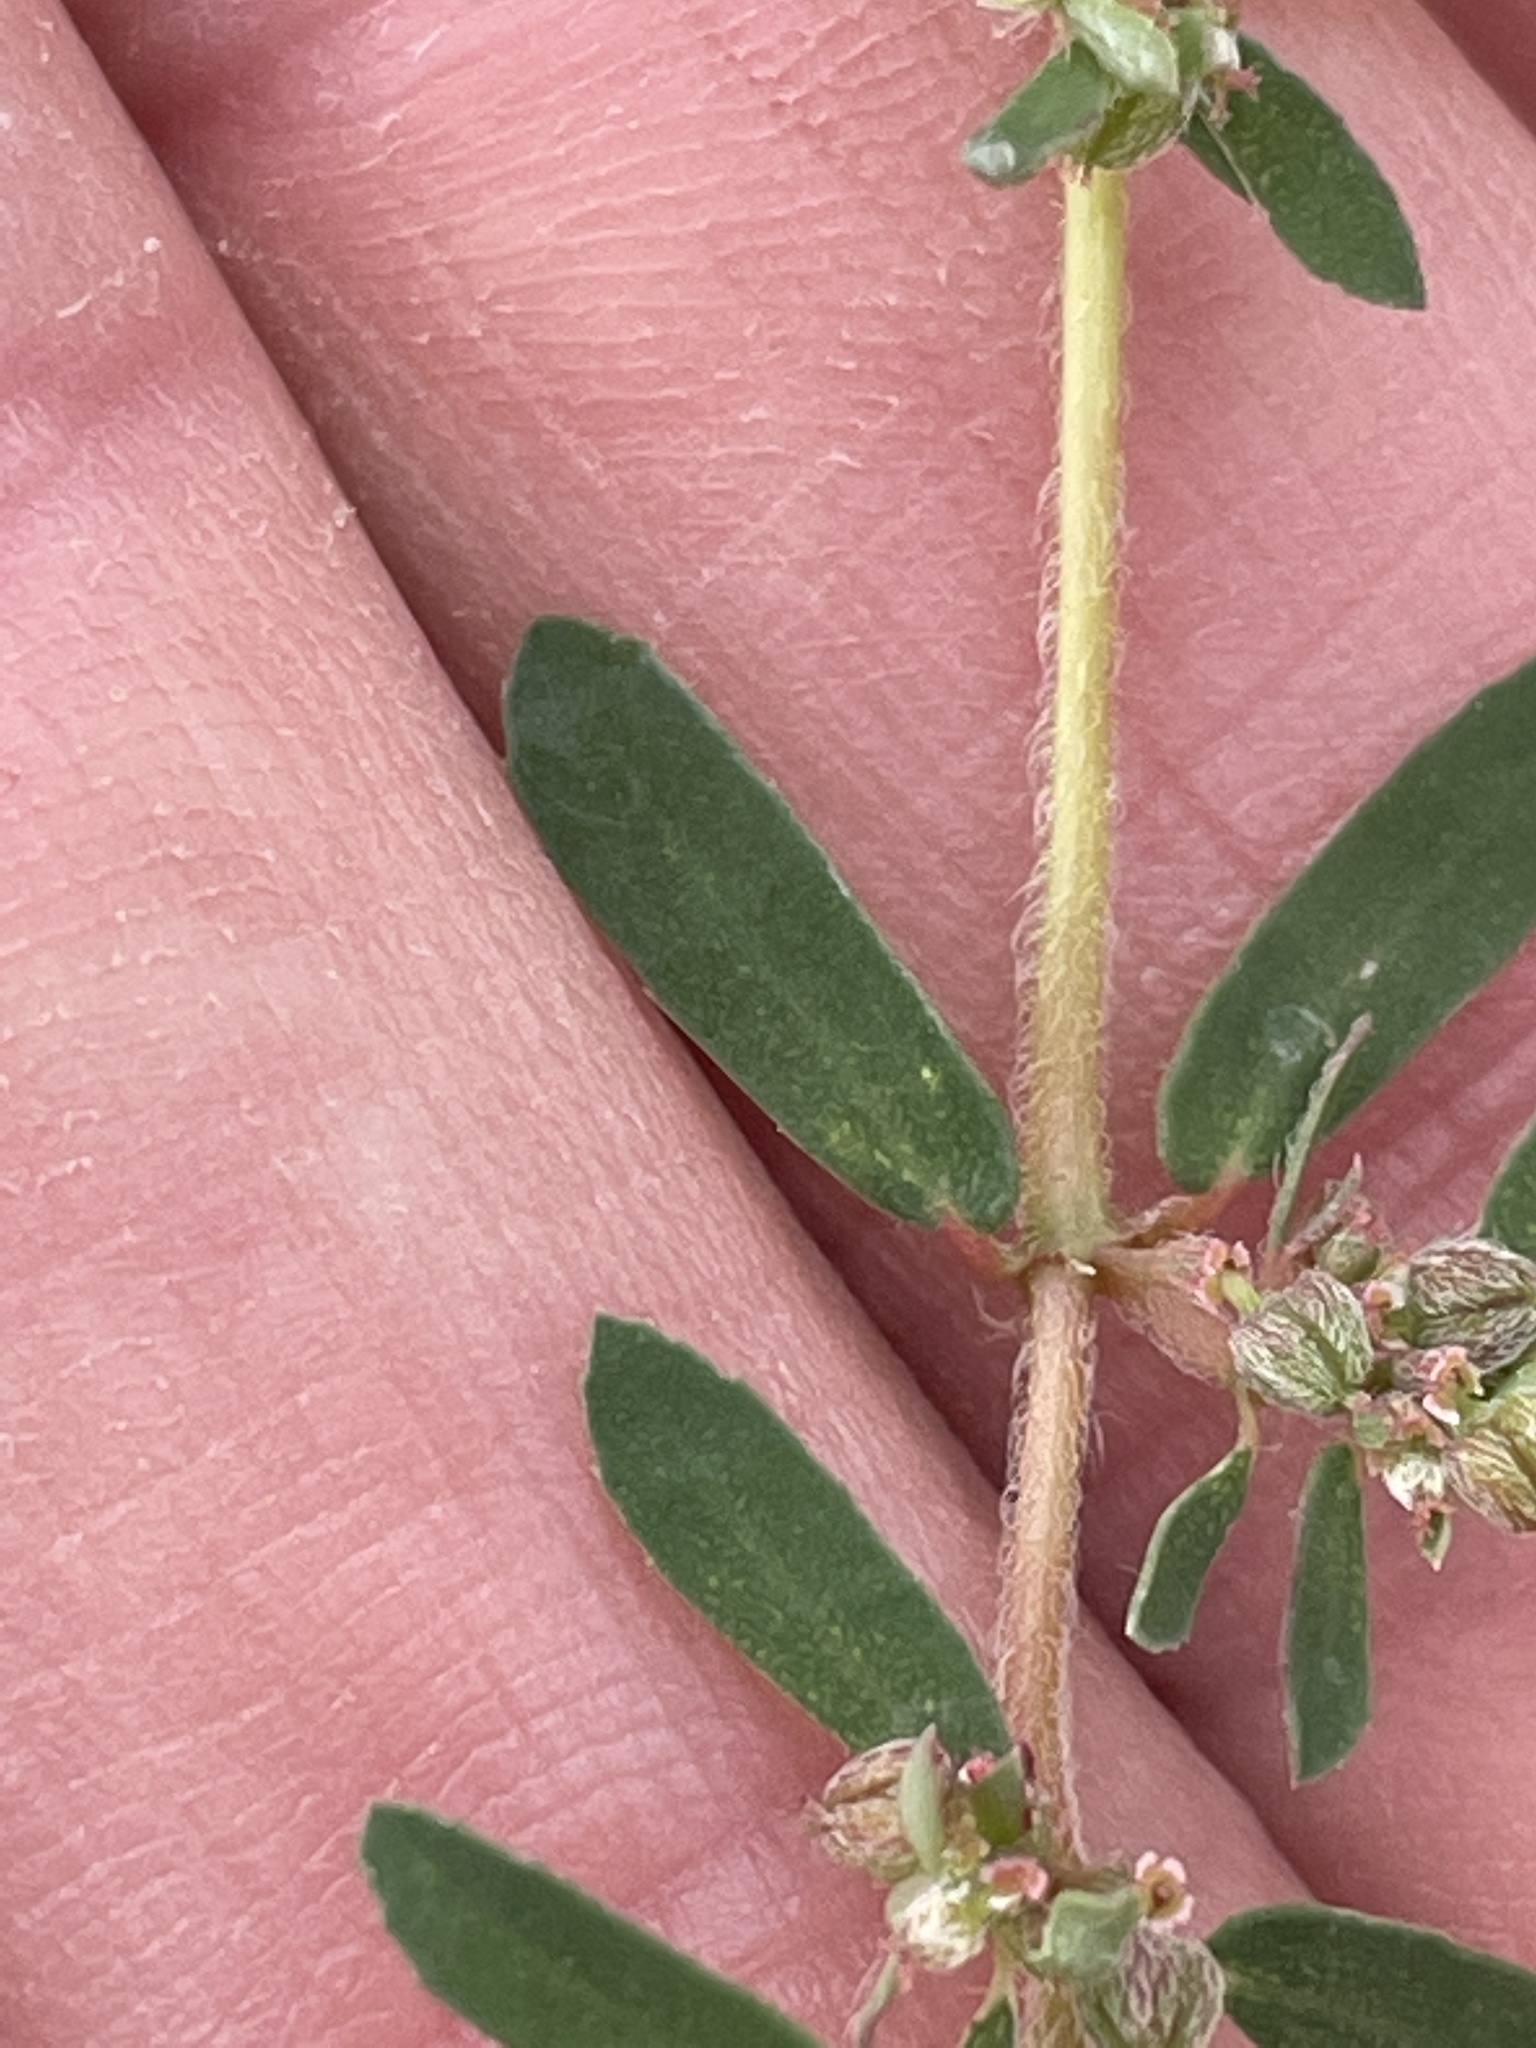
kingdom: Plantae
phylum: Tracheophyta
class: Magnoliopsida
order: Malpighiales
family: Euphorbiaceae
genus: Euphorbia
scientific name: Euphorbia maculata
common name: Spotted spurge
